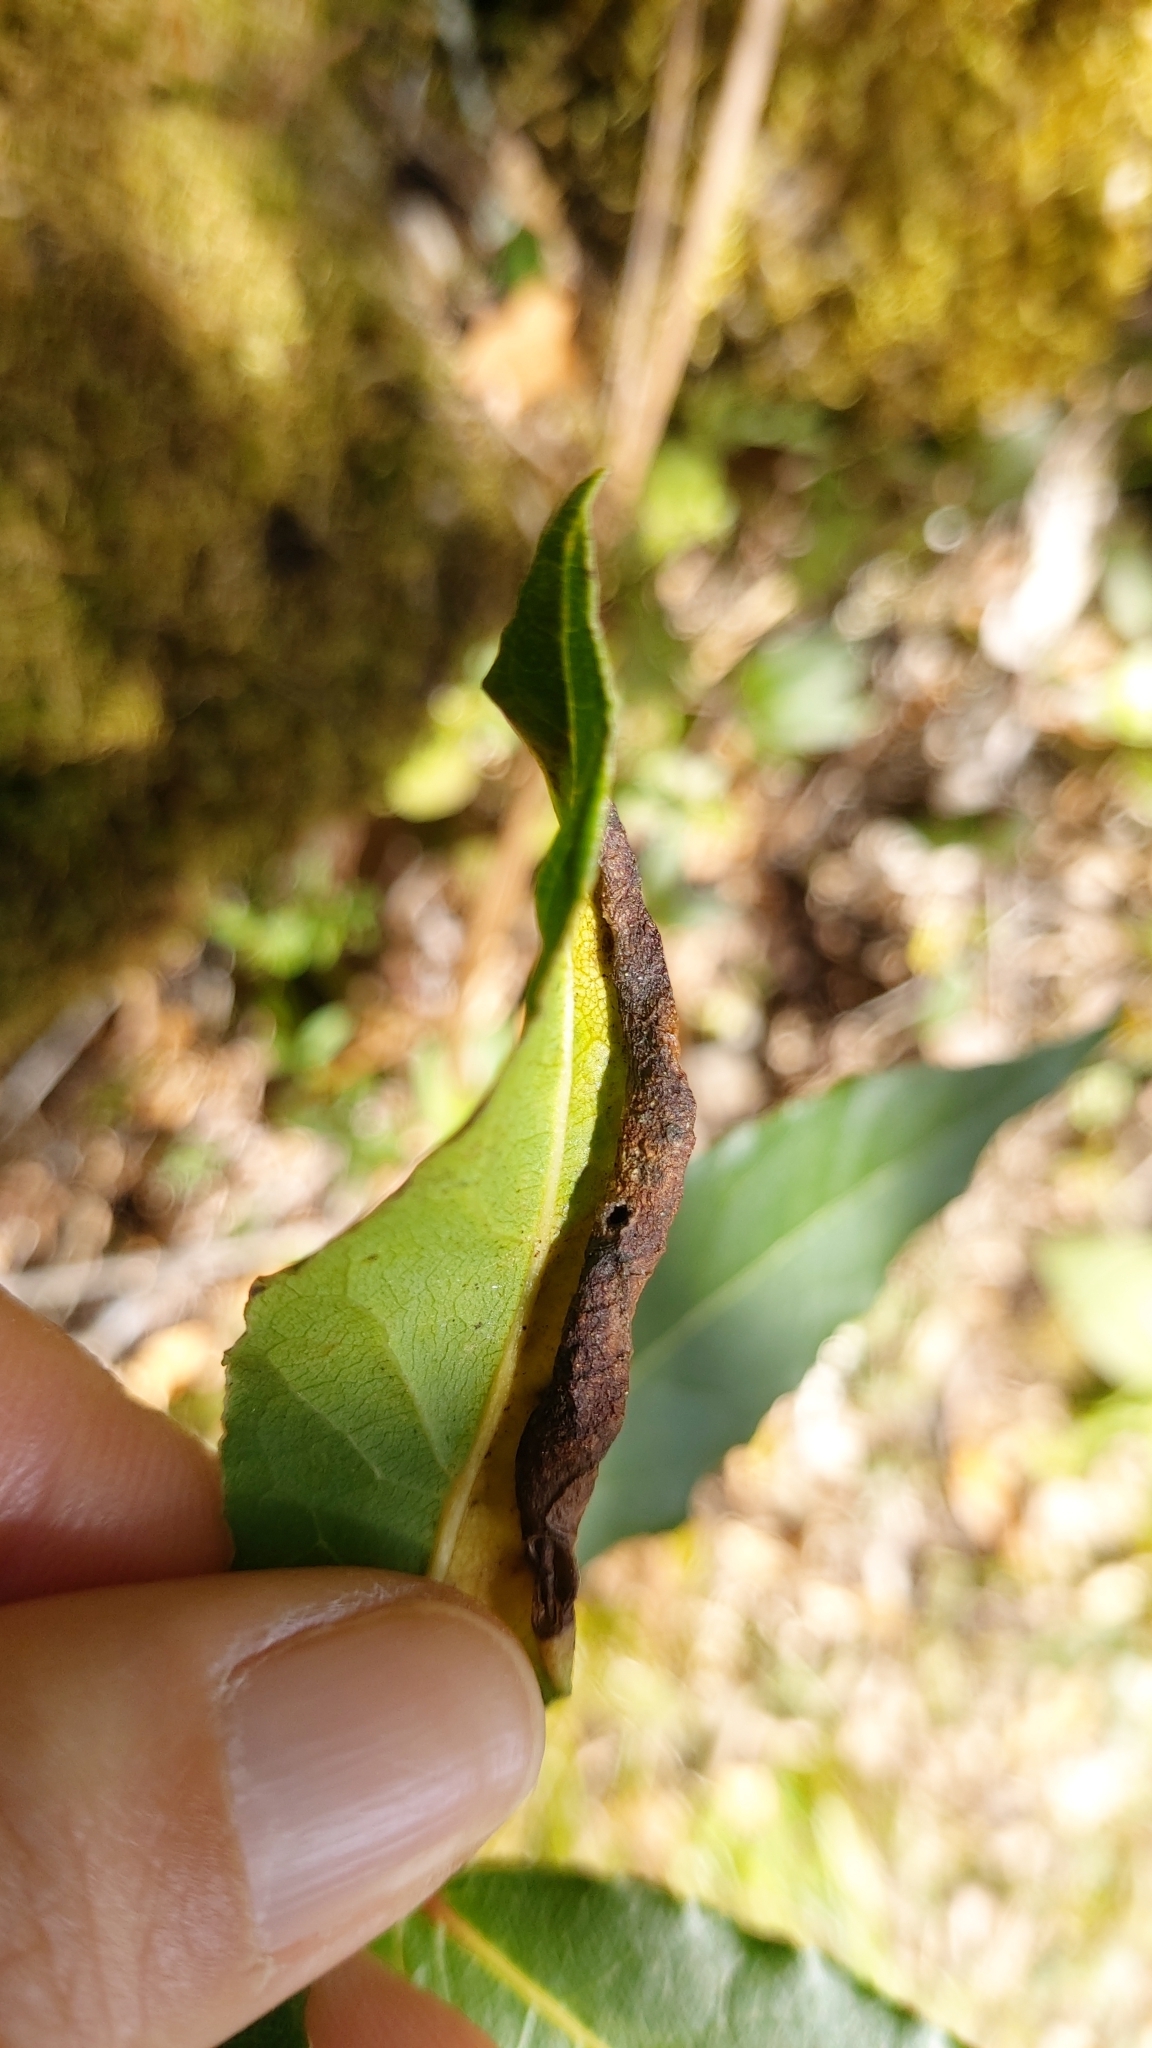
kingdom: Plantae
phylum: Tracheophyta
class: Magnoliopsida
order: Laurales
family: Lauraceae
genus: Laurus
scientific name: Laurus nobilis
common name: Bay
